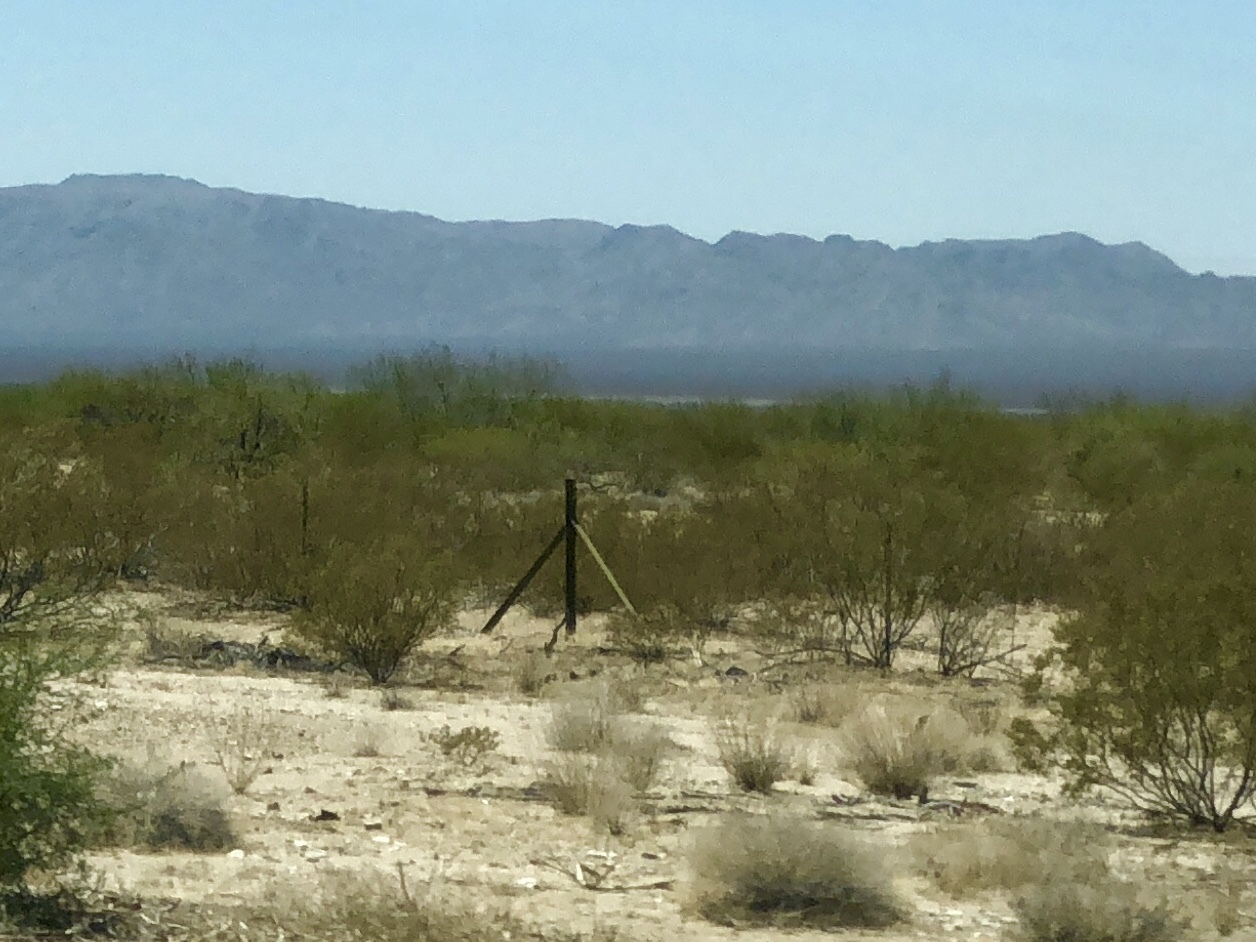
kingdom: Plantae
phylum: Tracheophyta
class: Magnoliopsida
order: Zygophyllales
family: Zygophyllaceae
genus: Larrea
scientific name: Larrea tridentata
